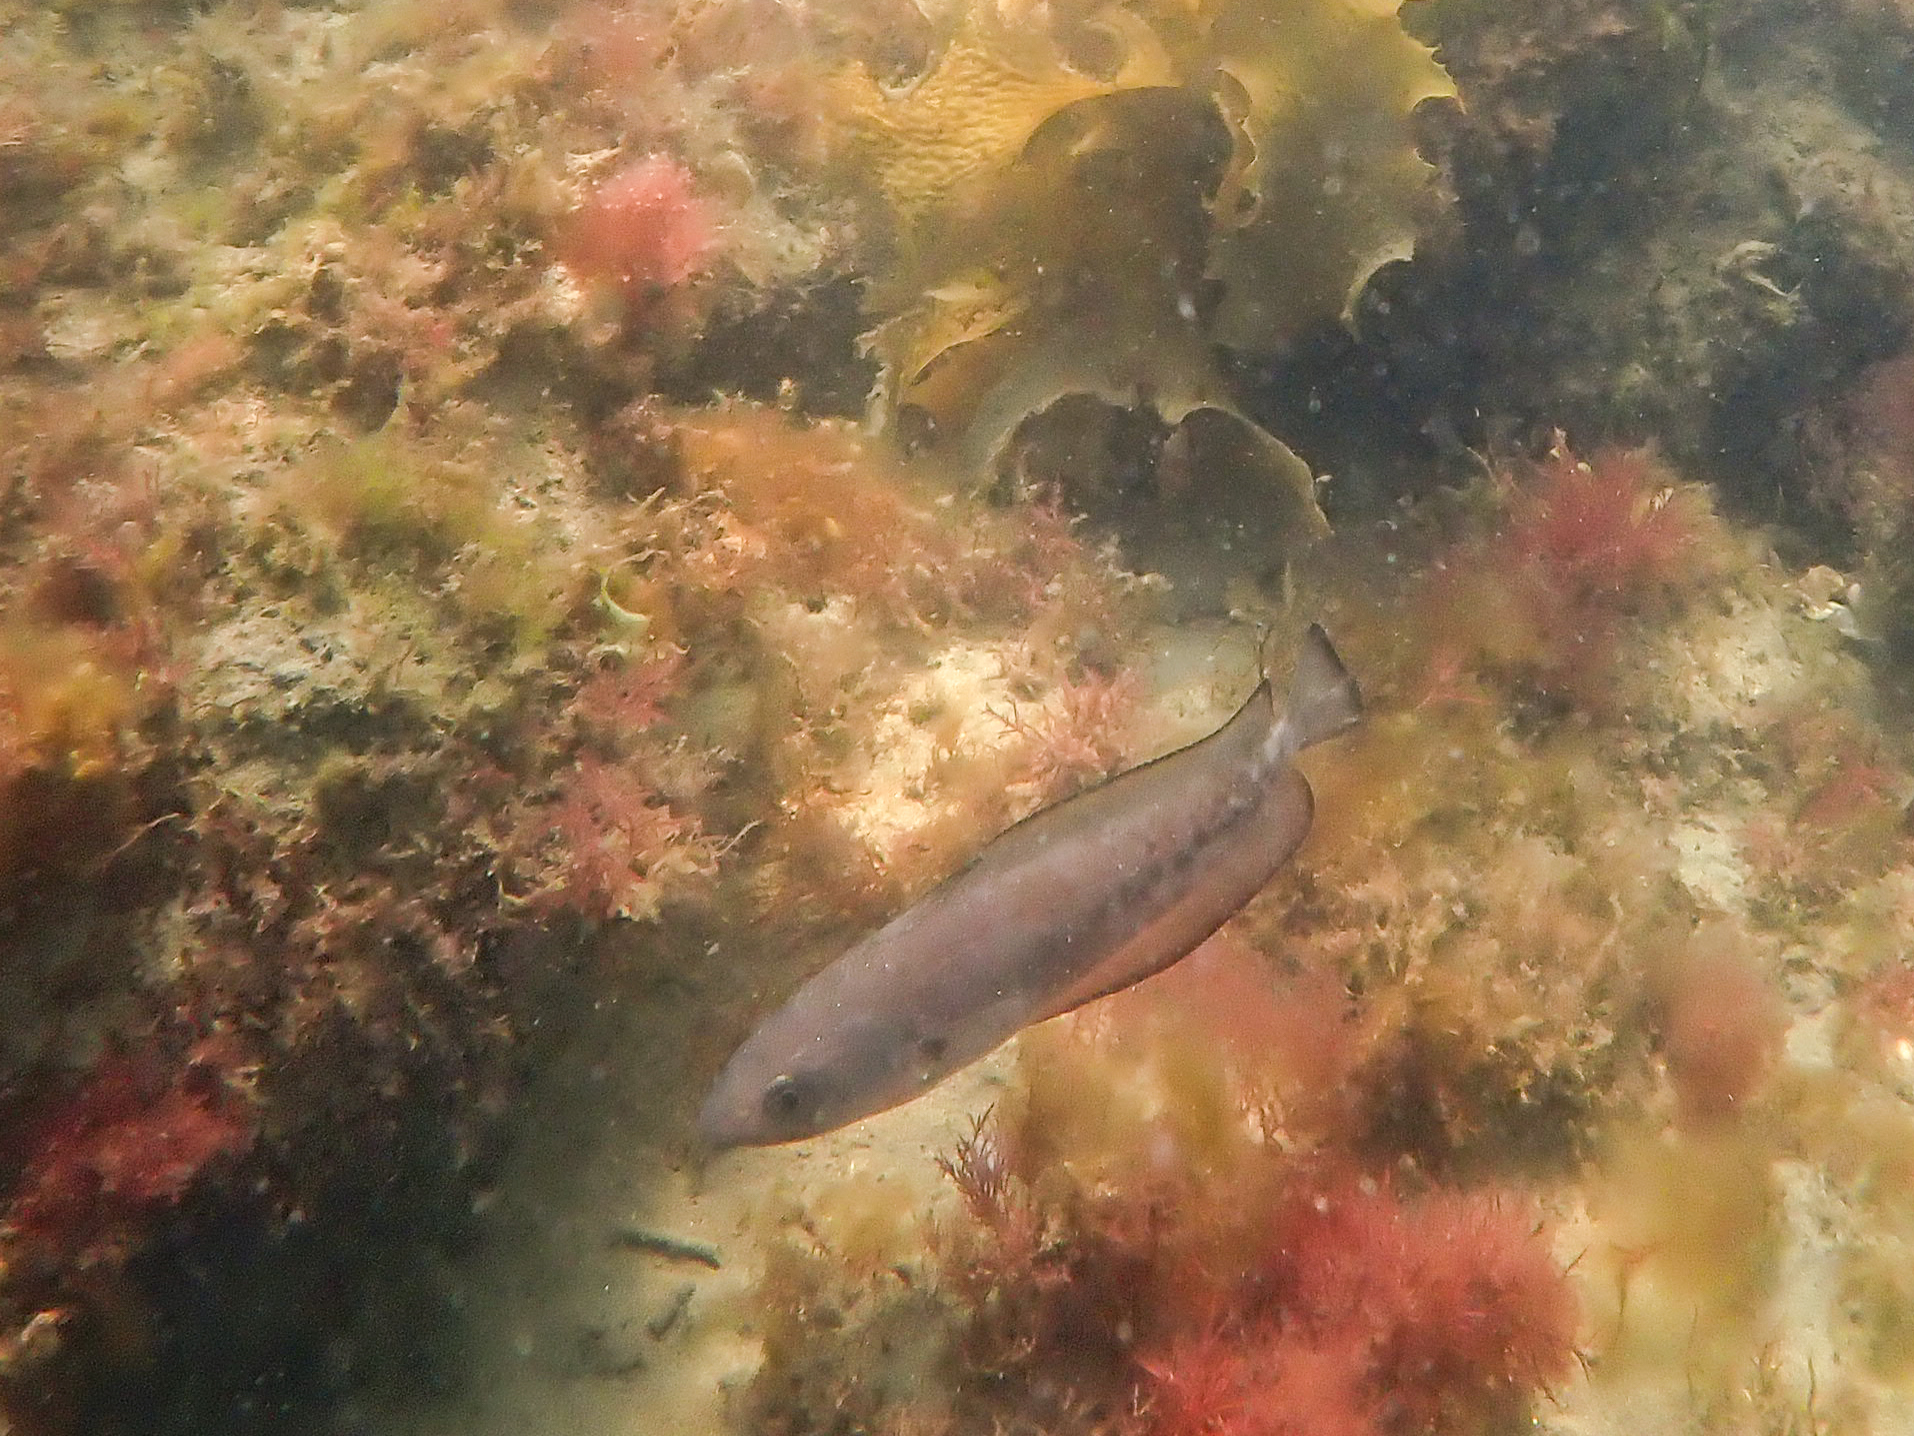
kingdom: Animalia
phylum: Chordata
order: Gadiformes
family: Moridae
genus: Pseudophycis
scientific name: Pseudophycis palmata
